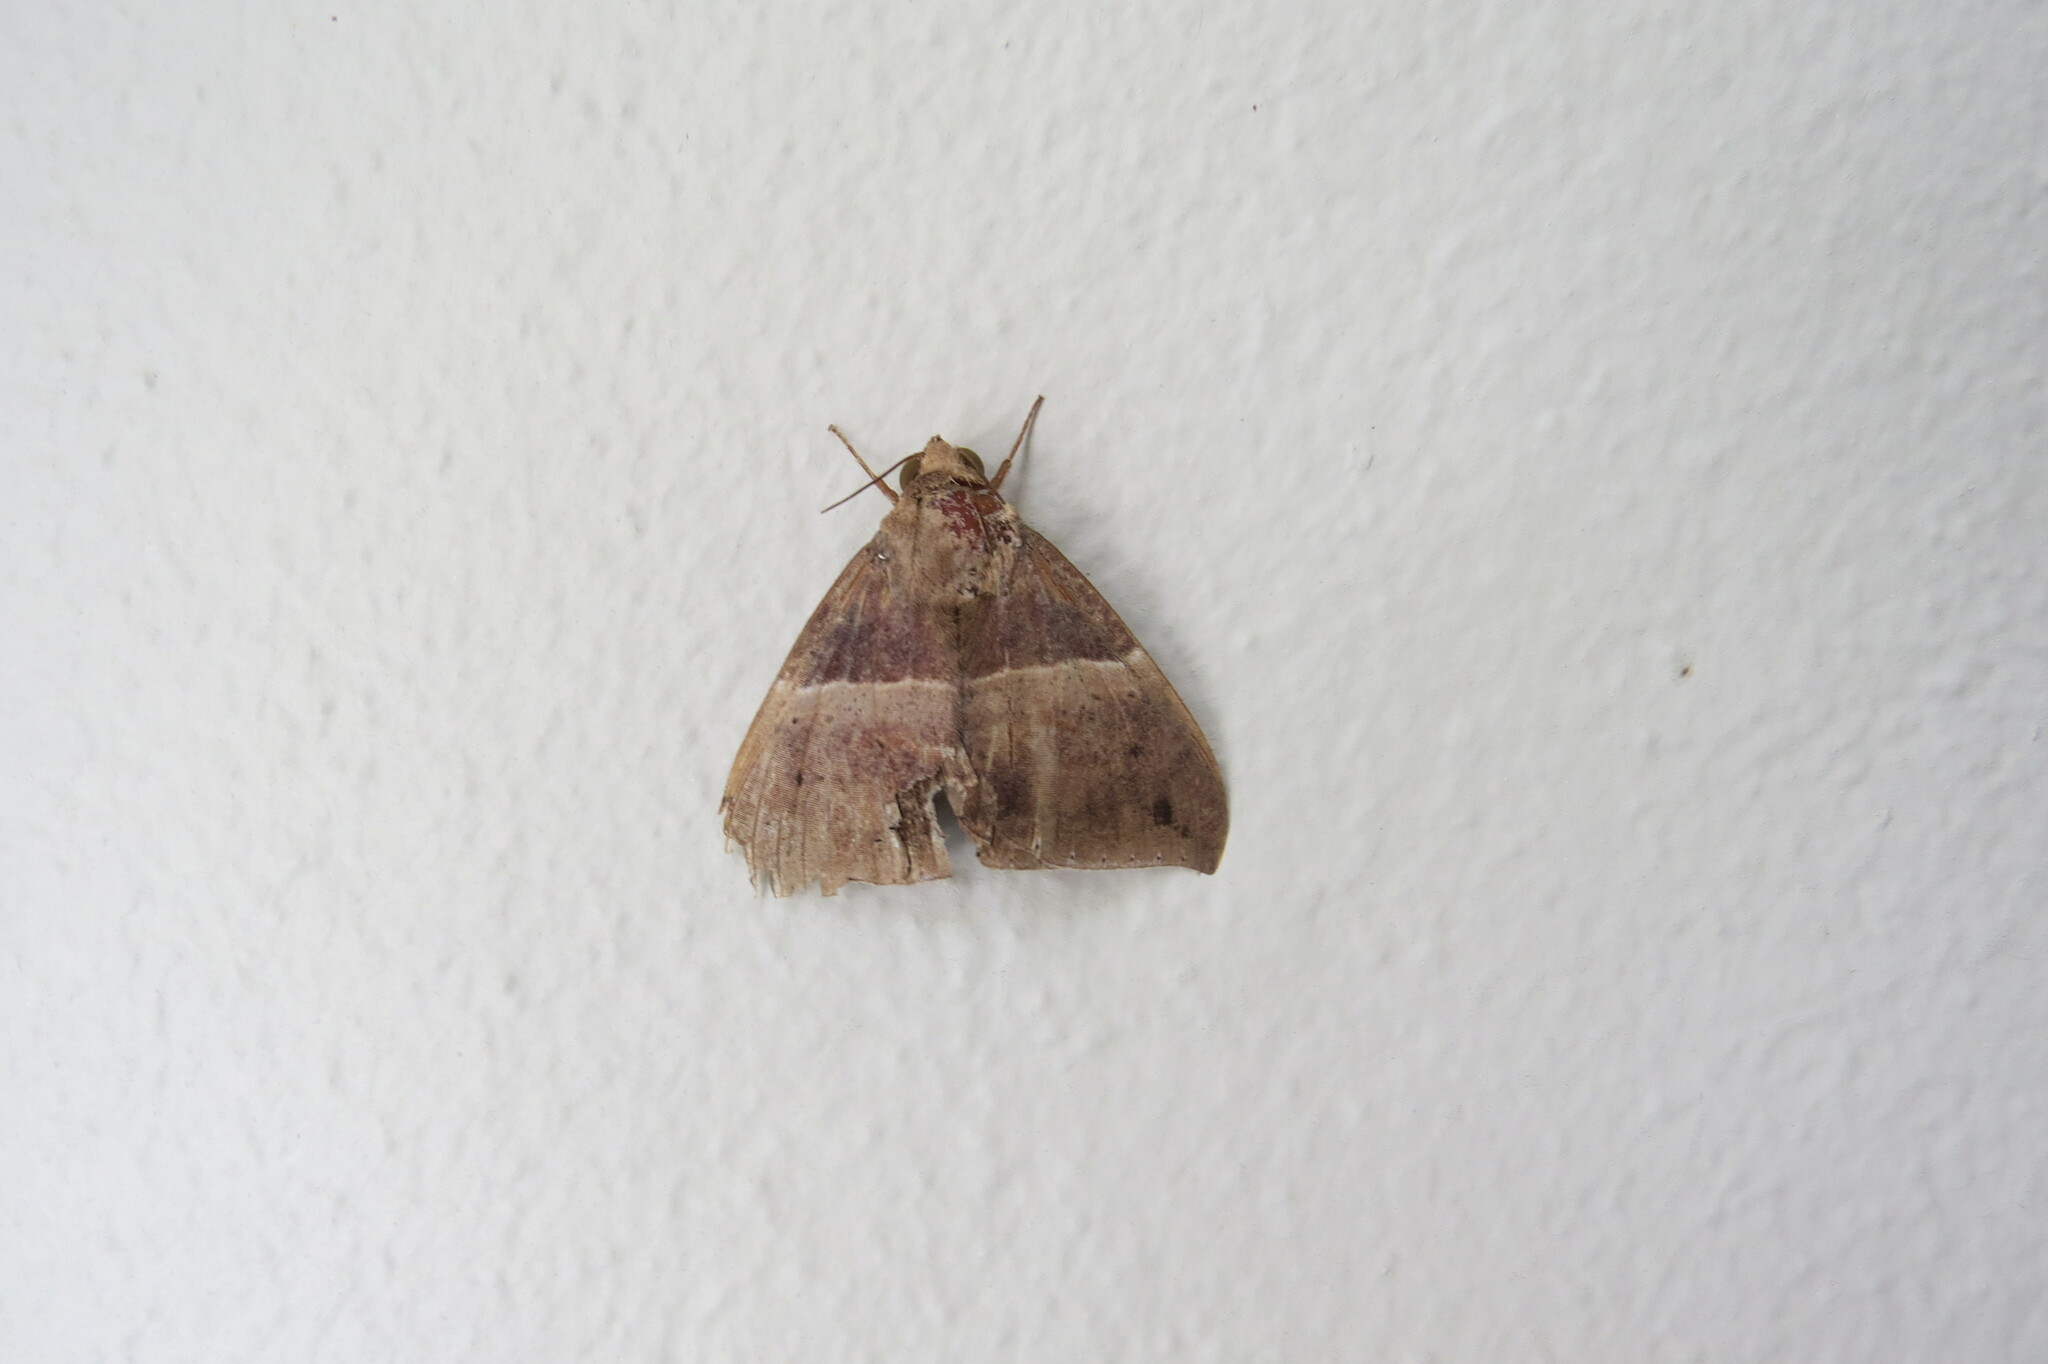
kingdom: Animalia
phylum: Arthropoda
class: Insecta
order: Lepidoptera
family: Erebidae
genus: Ophisma
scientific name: Ophisma tropicalis
